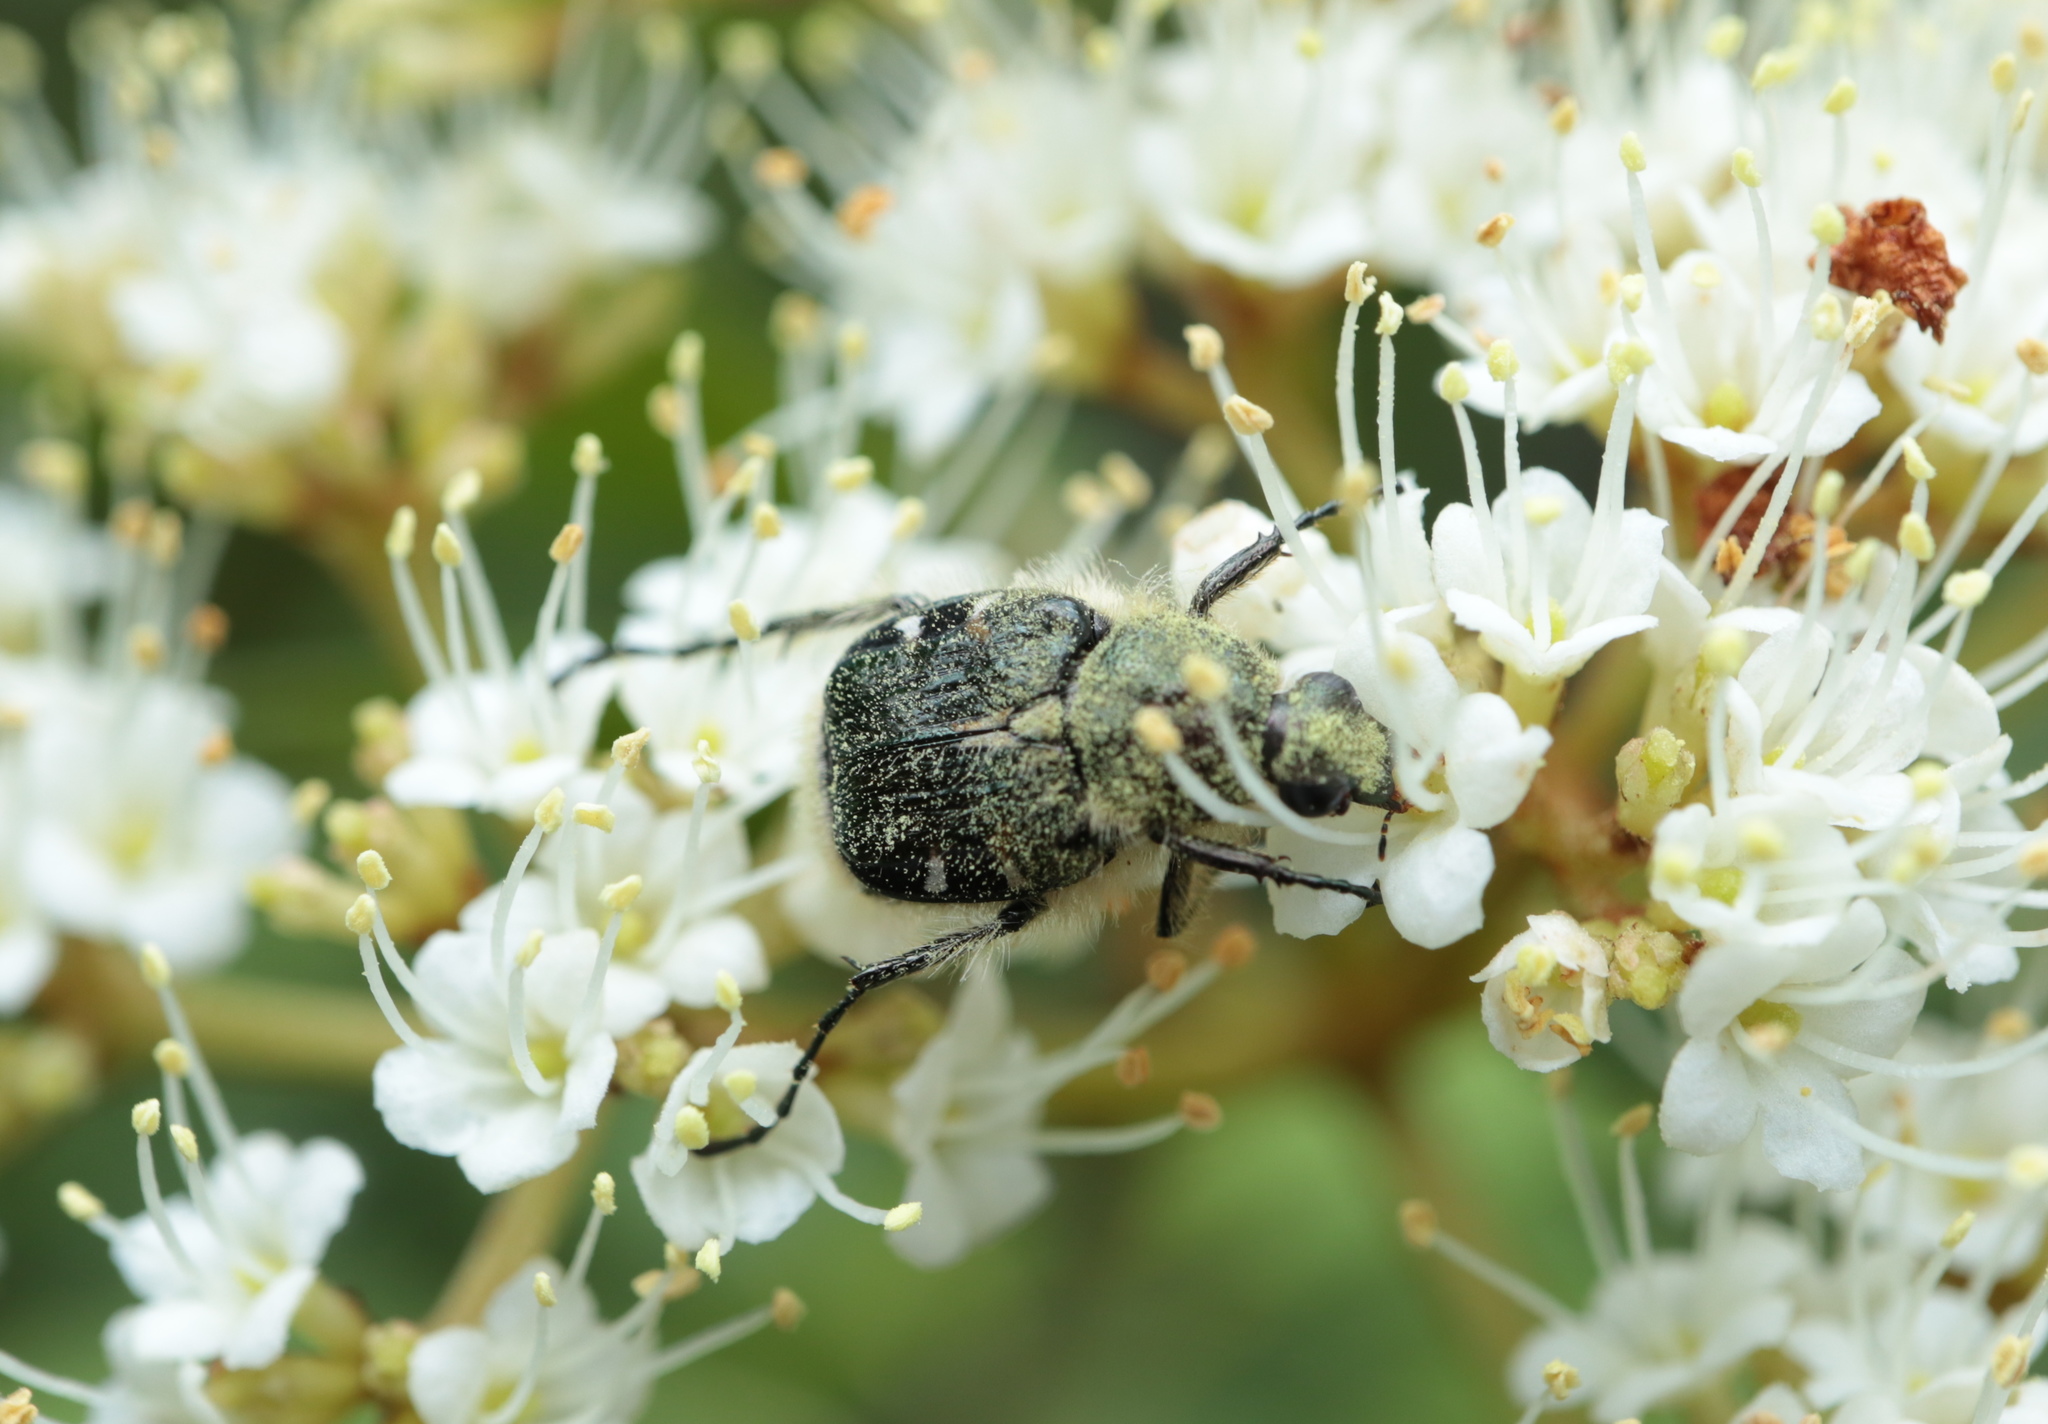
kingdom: Animalia
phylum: Arthropoda
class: Insecta
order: Coleoptera
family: Scarabaeidae
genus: Trichiotinus
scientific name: Trichiotinus affinis
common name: Hairy flower scarab
